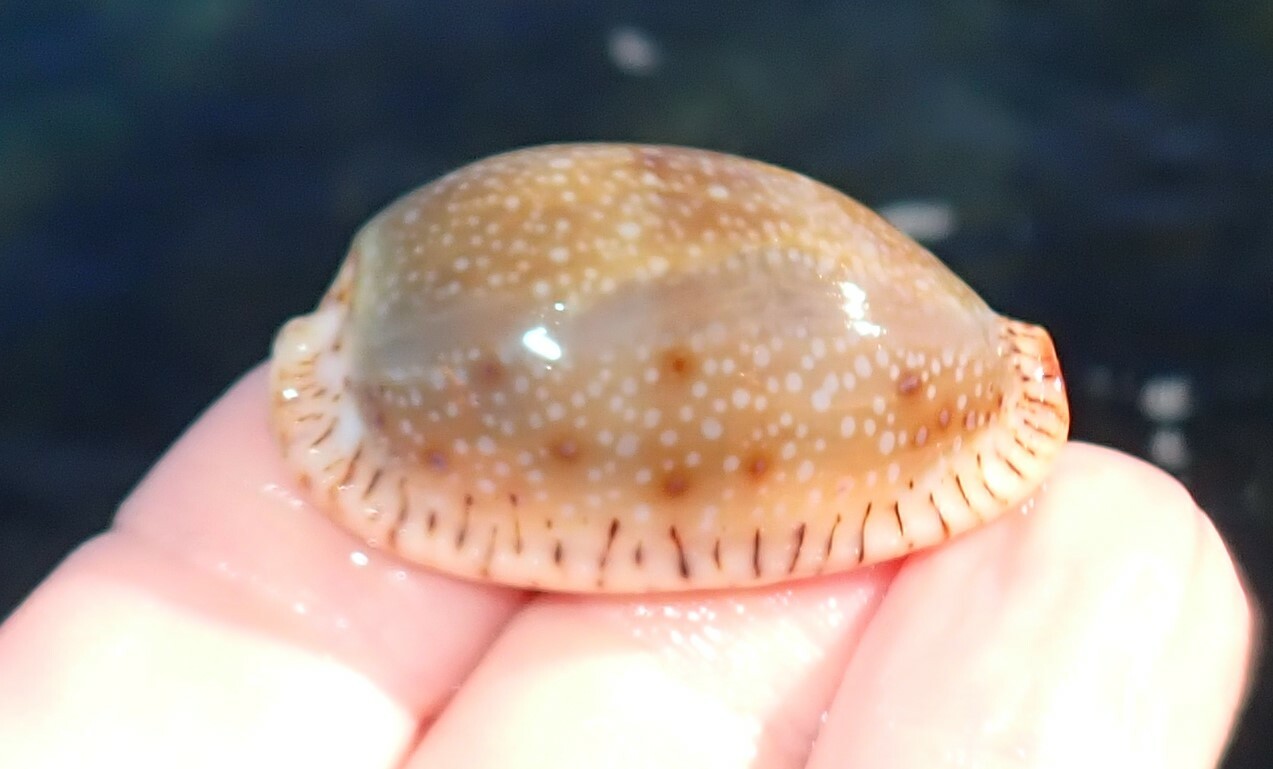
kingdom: Animalia
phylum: Mollusca
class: Gastropoda
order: Littorinimorpha
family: Cypraeidae
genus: Naria
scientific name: Naria erosa
